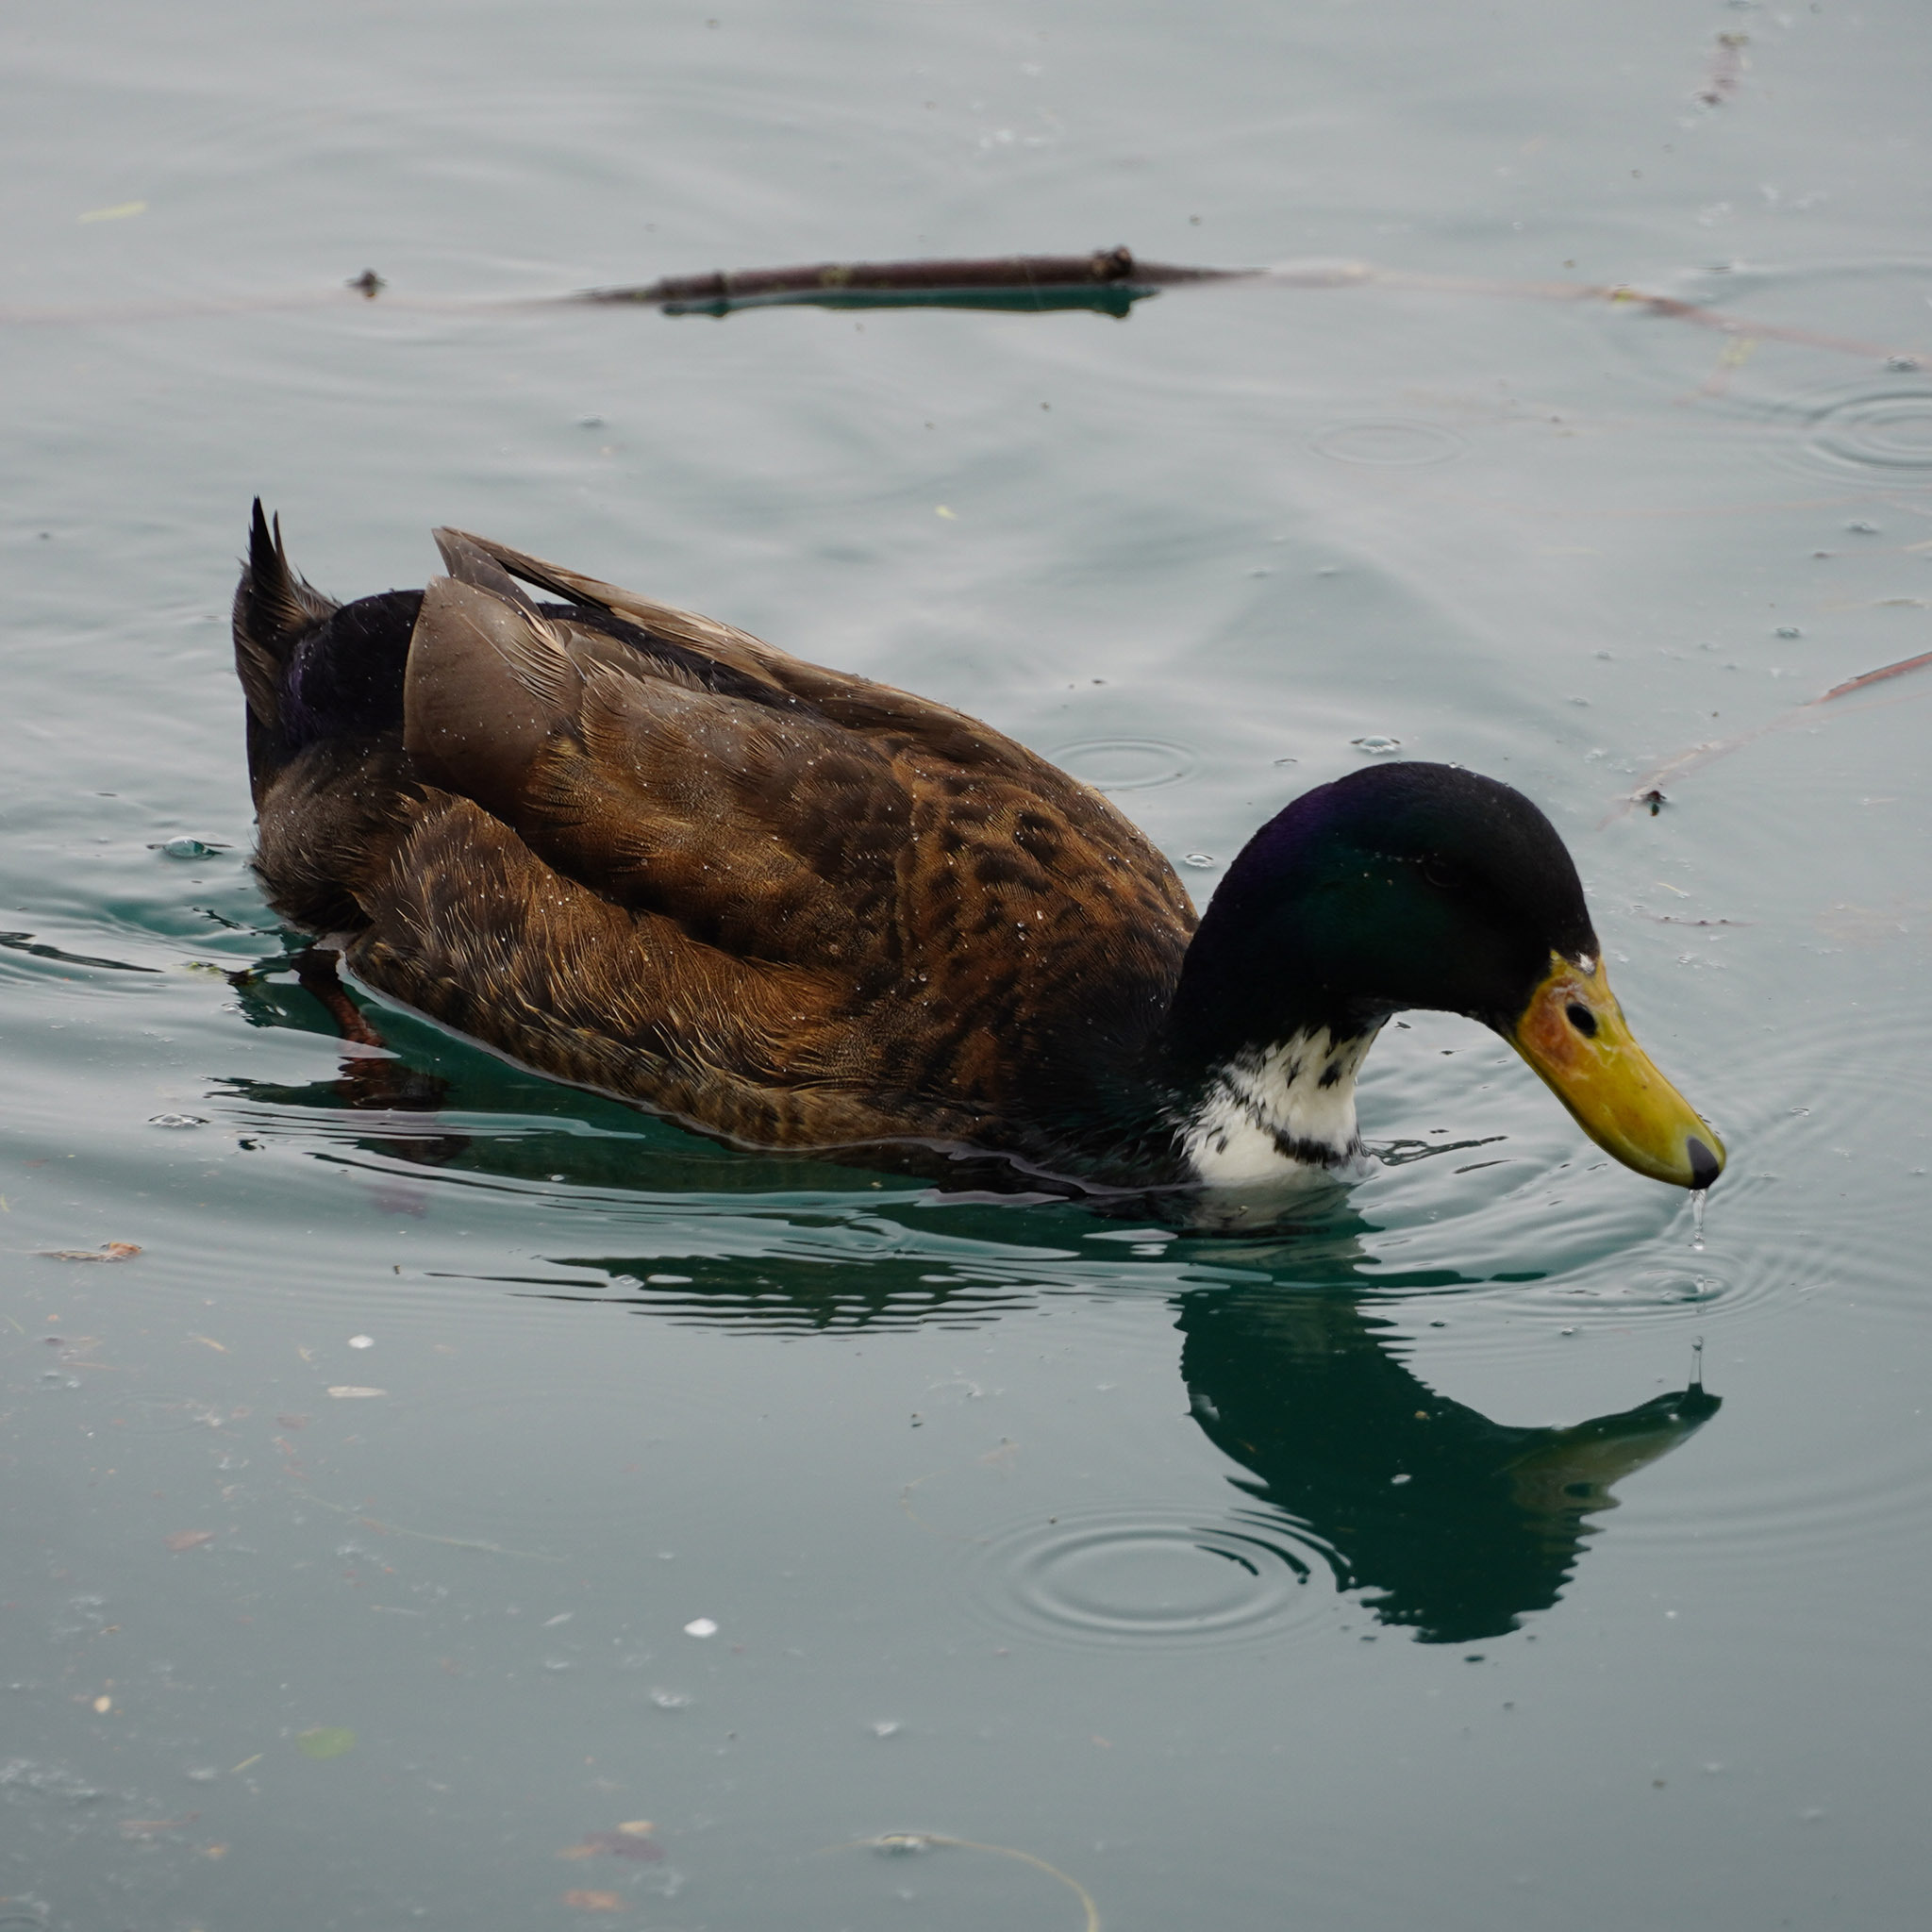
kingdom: Animalia
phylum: Chordata
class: Aves
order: Anseriformes
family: Anatidae
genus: Anas
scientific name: Anas platyrhynchos
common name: Mallard
